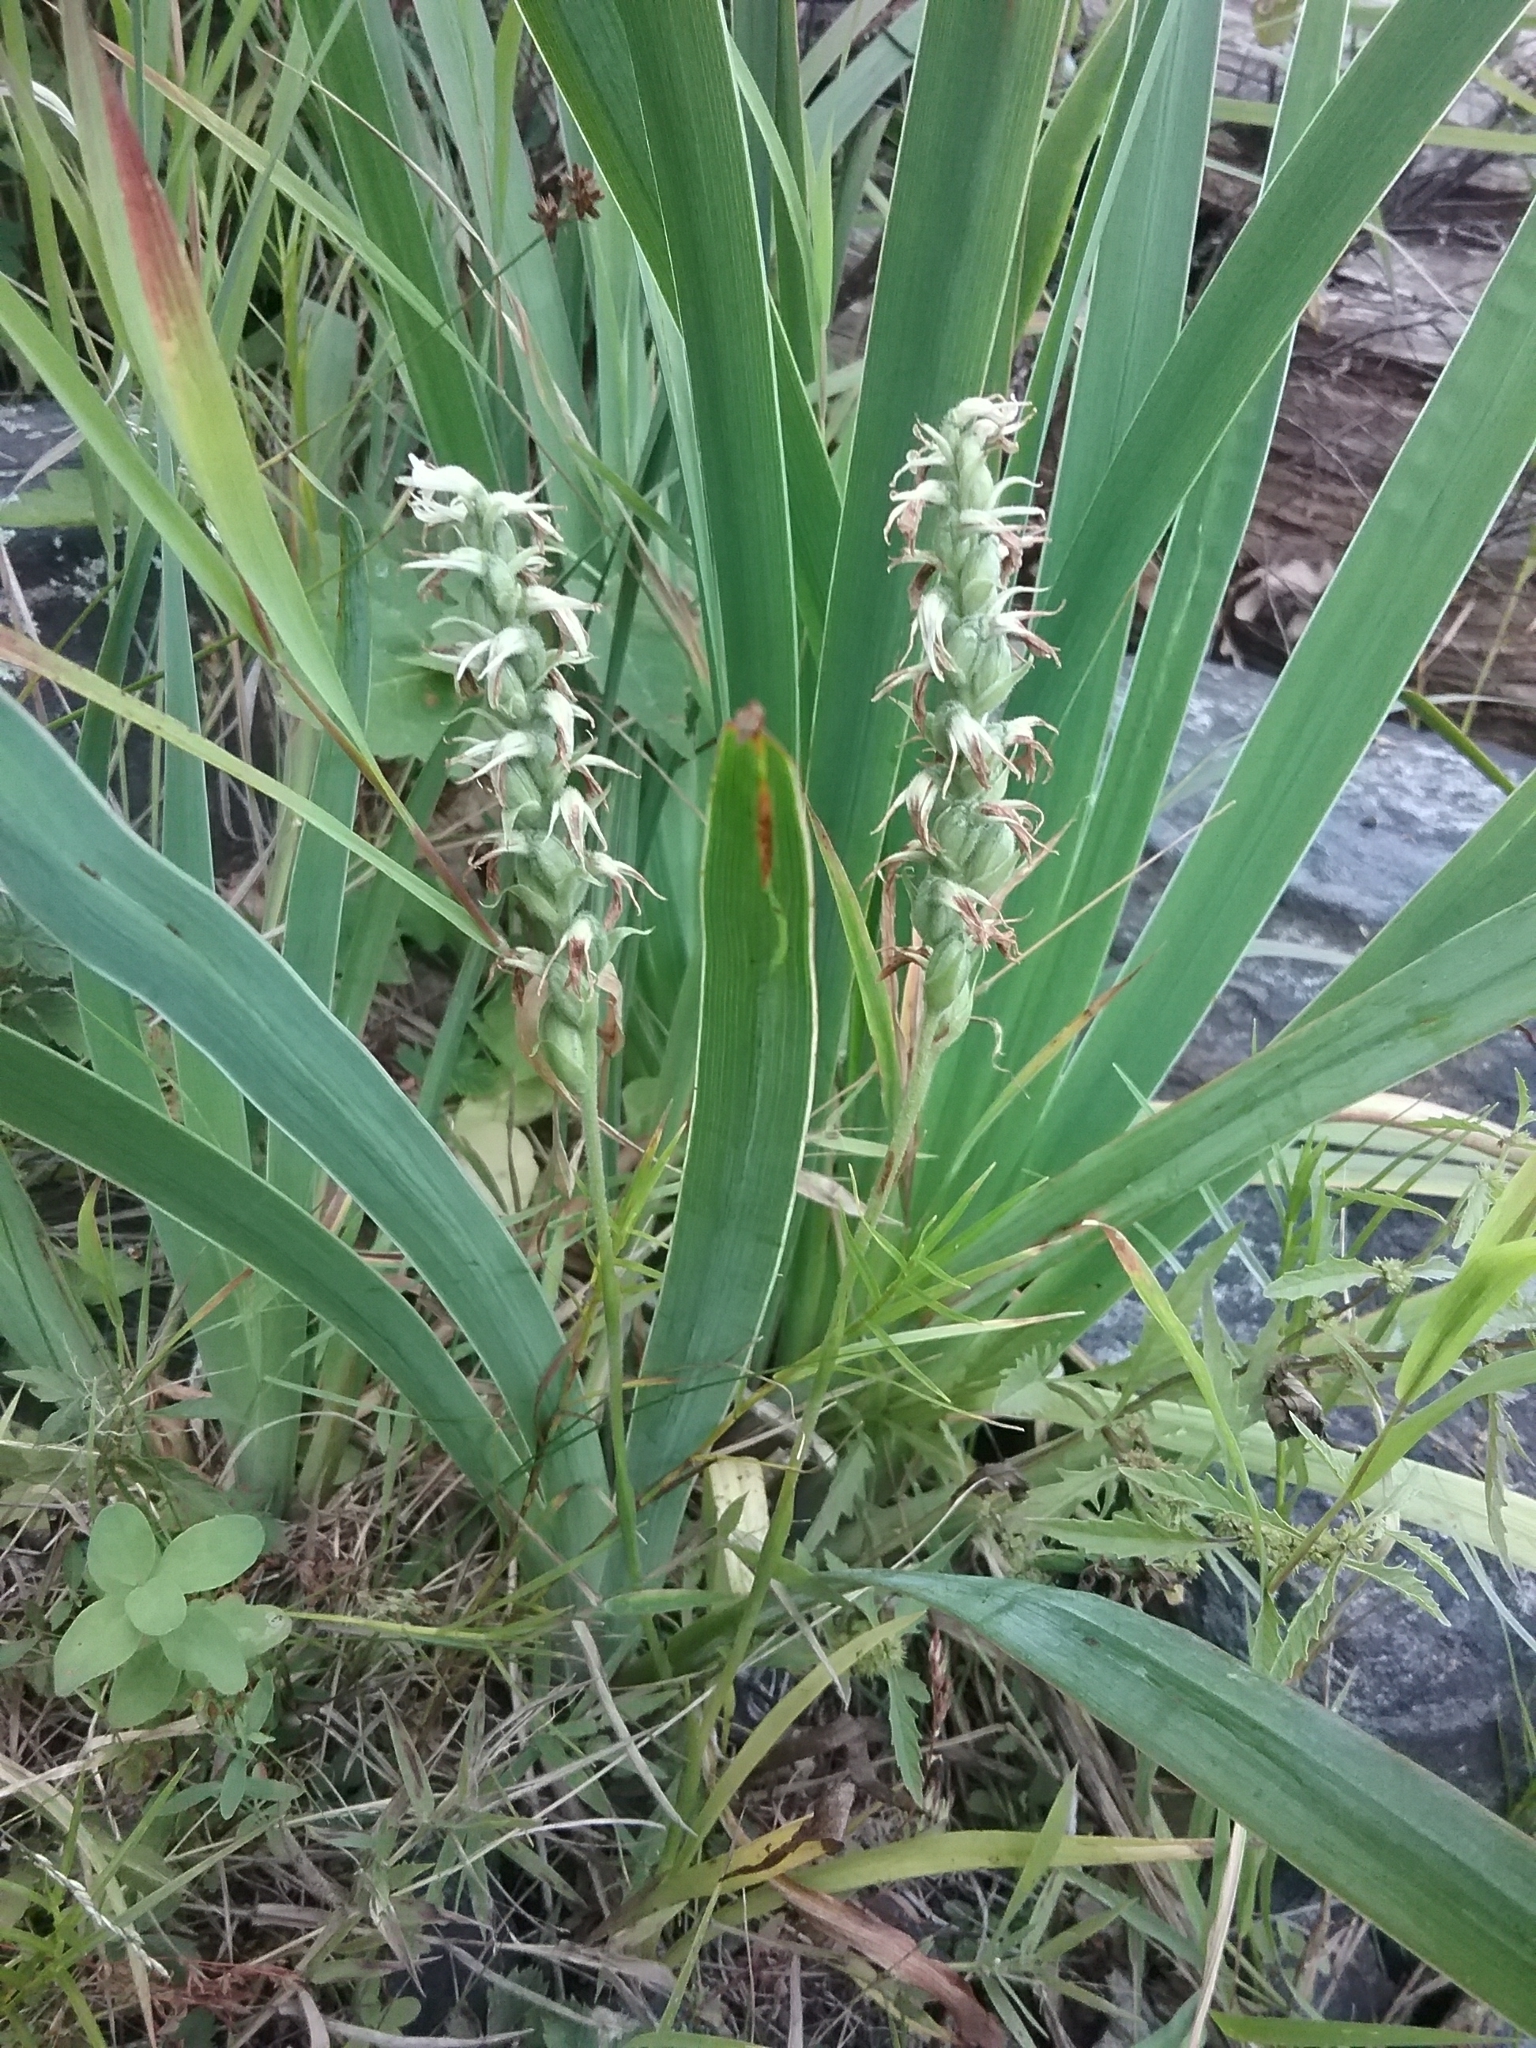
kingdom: Plantae
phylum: Tracheophyta
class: Liliopsida
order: Asparagales
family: Orchidaceae
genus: Spiranthes
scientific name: Spiranthes incurva
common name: Sphinx ladies'-tresses
